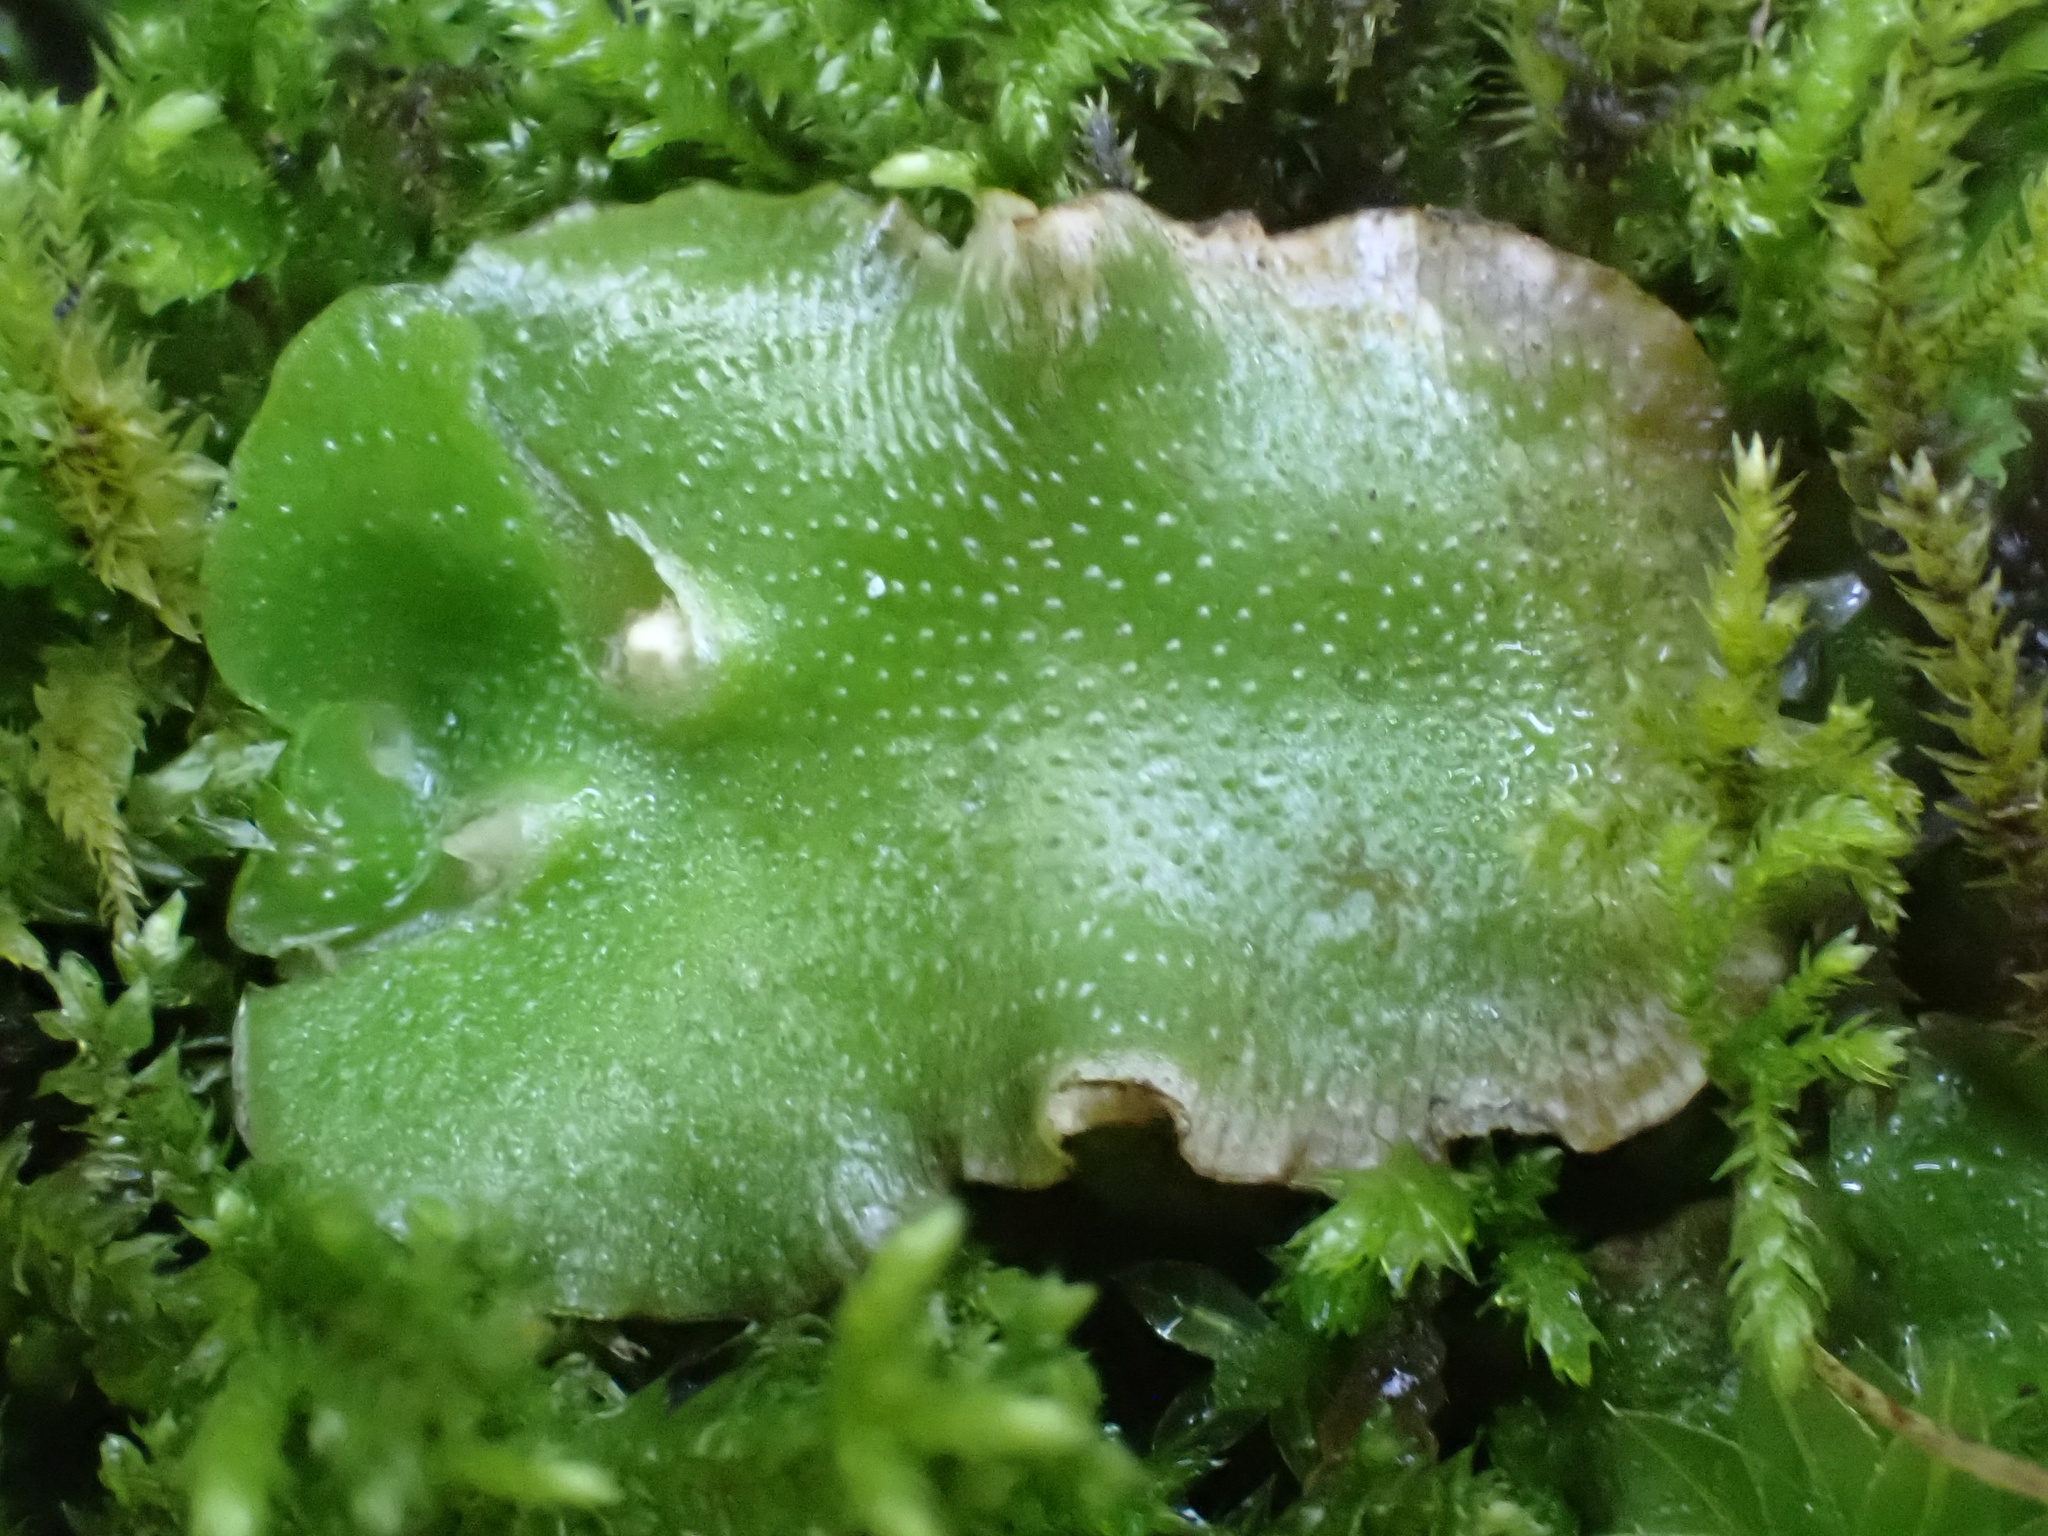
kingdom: Plantae
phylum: Marchantiophyta
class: Marchantiopsida
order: Lunulariales
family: Lunulariaceae
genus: Lunularia
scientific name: Lunularia cruciata
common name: Crescent-cup liverwort
